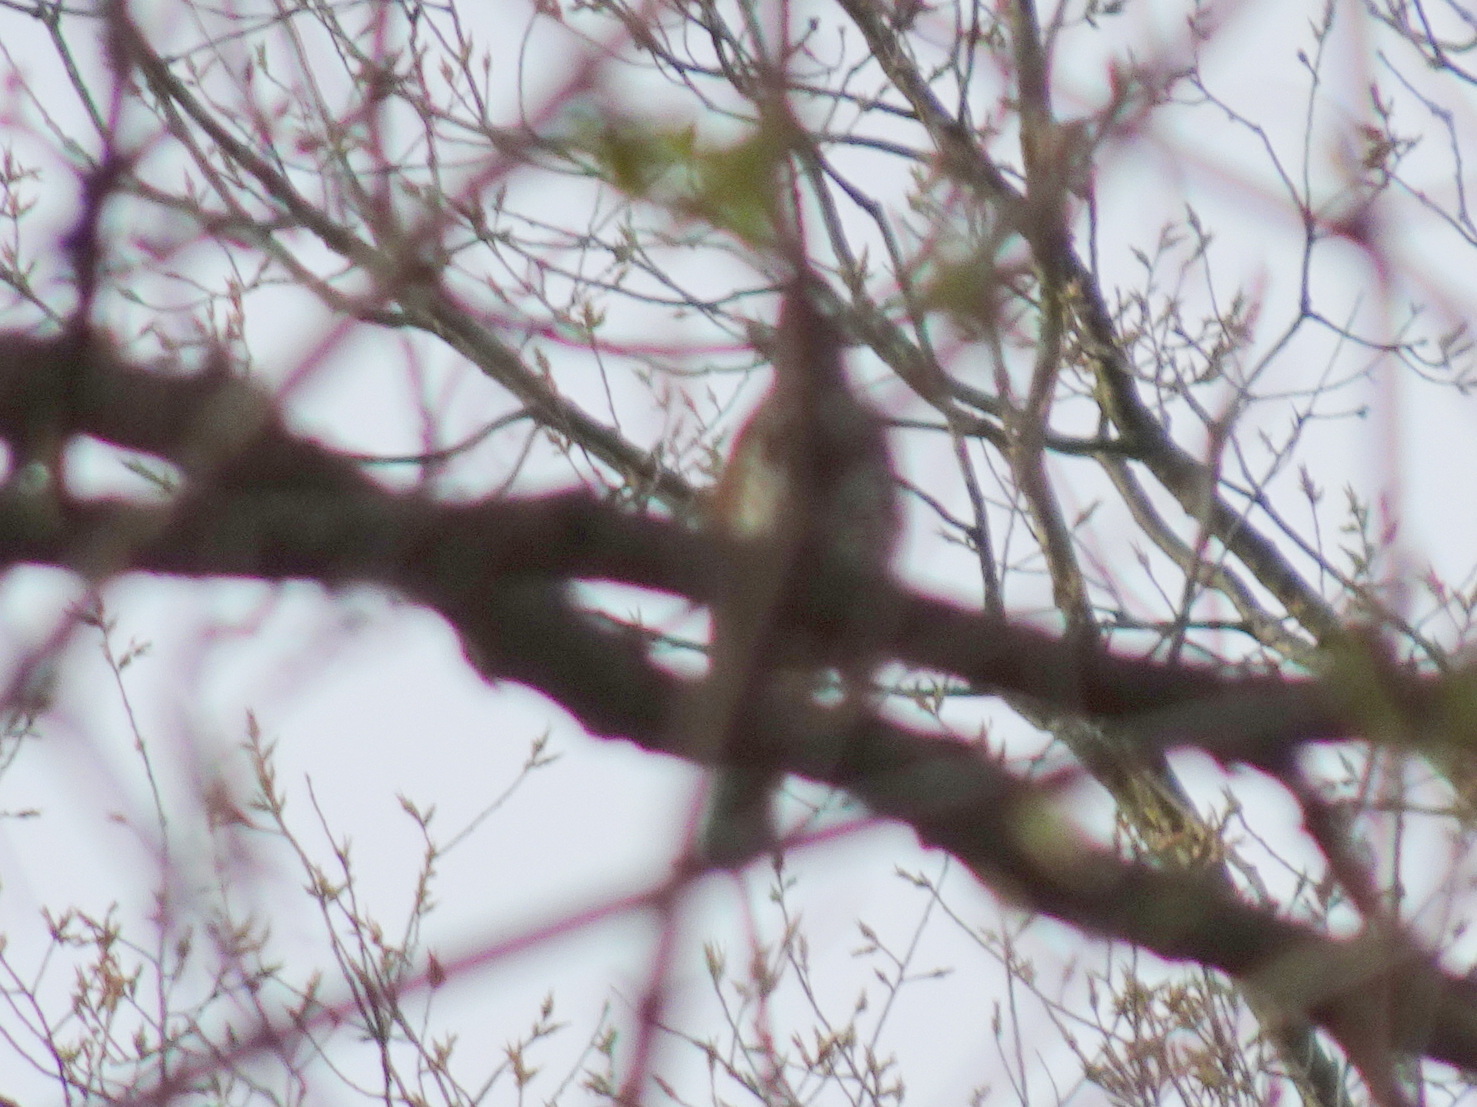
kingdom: Animalia
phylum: Chordata
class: Aves
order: Passeriformes
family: Turdidae
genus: Hylocichla
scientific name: Hylocichla mustelina
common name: Wood thrush
